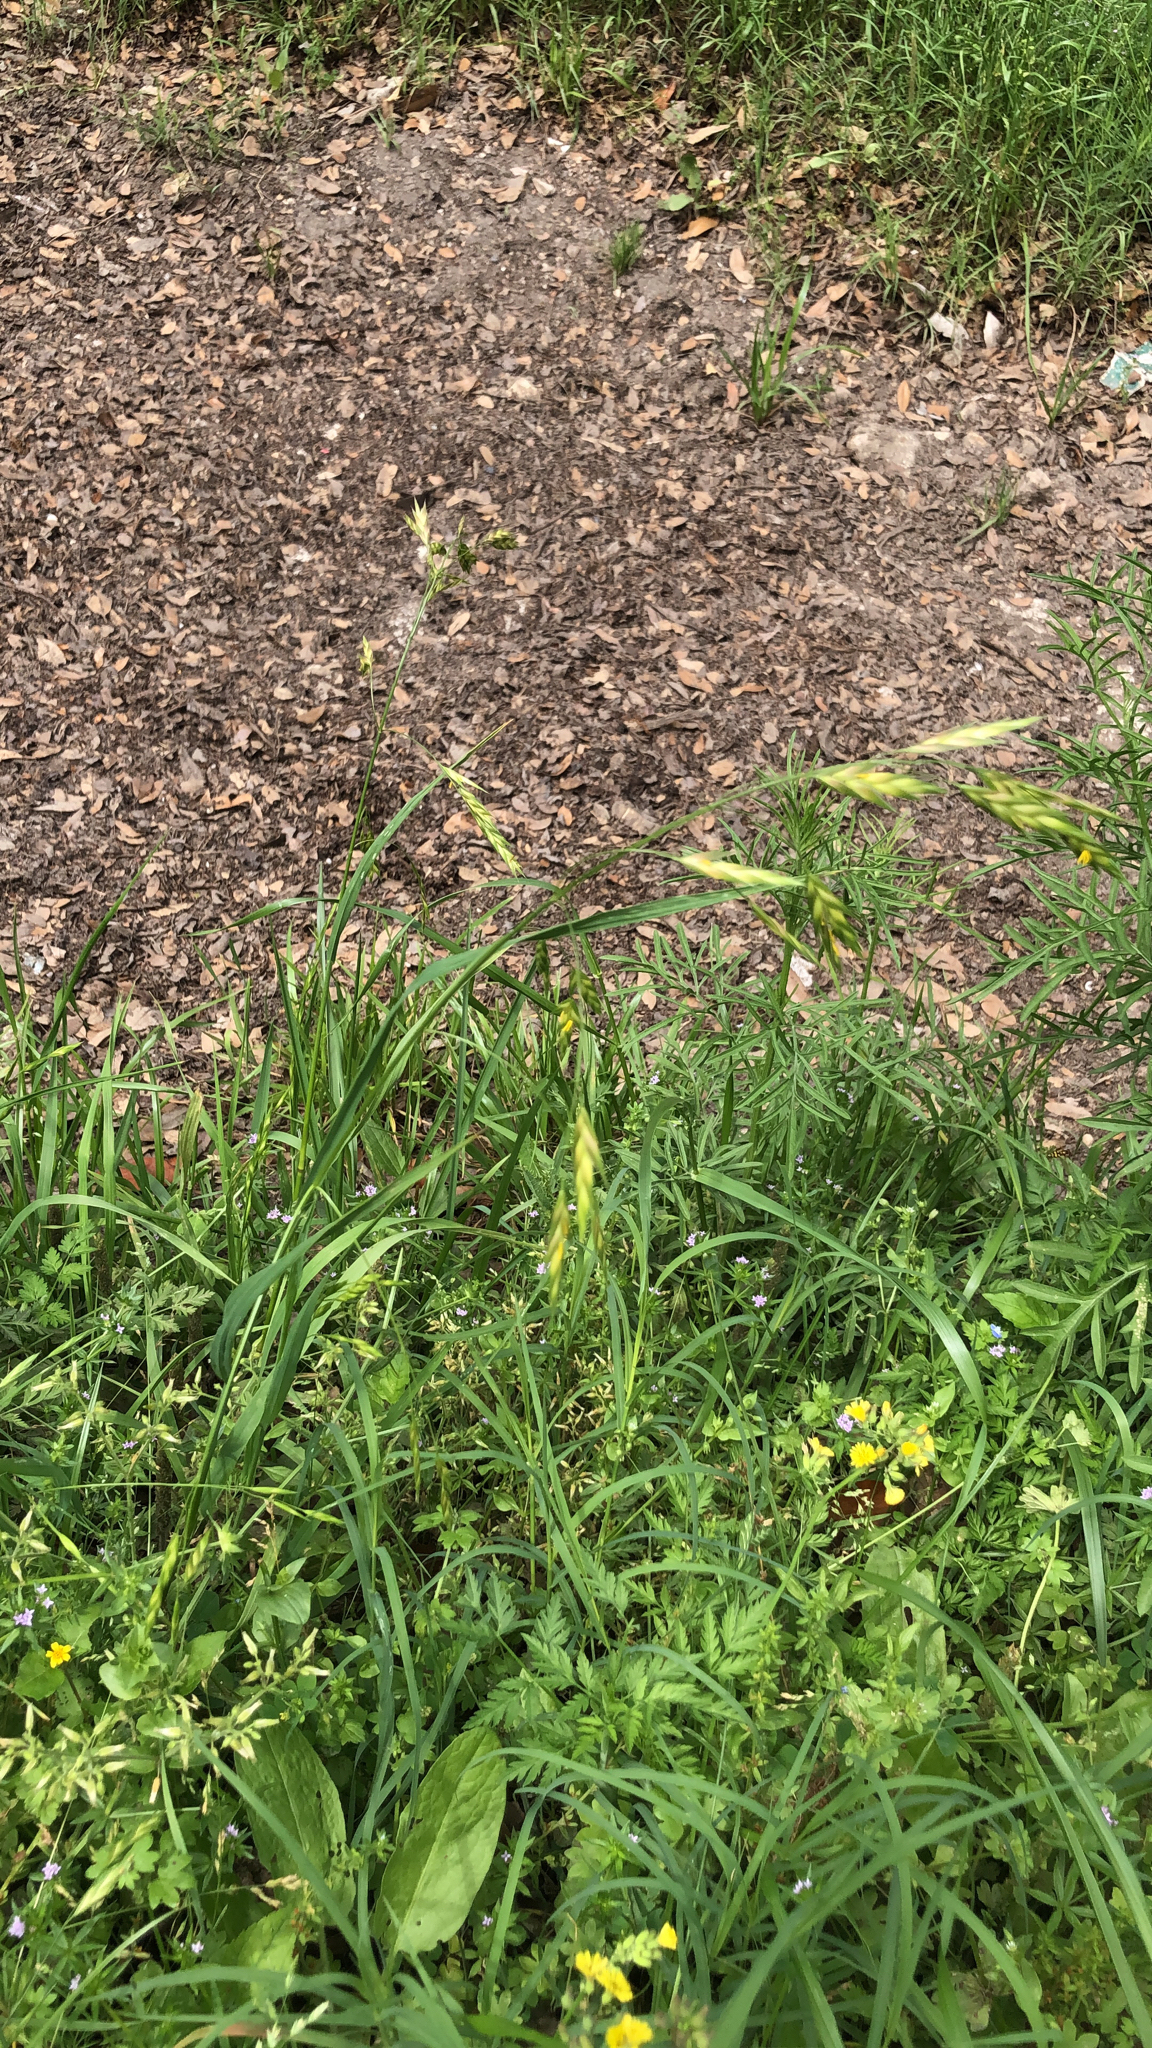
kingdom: Plantae
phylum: Tracheophyta
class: Liliopsida
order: Poales
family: Poaceae
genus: Bromus
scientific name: Bromus catharticus
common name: Rescuegrass
